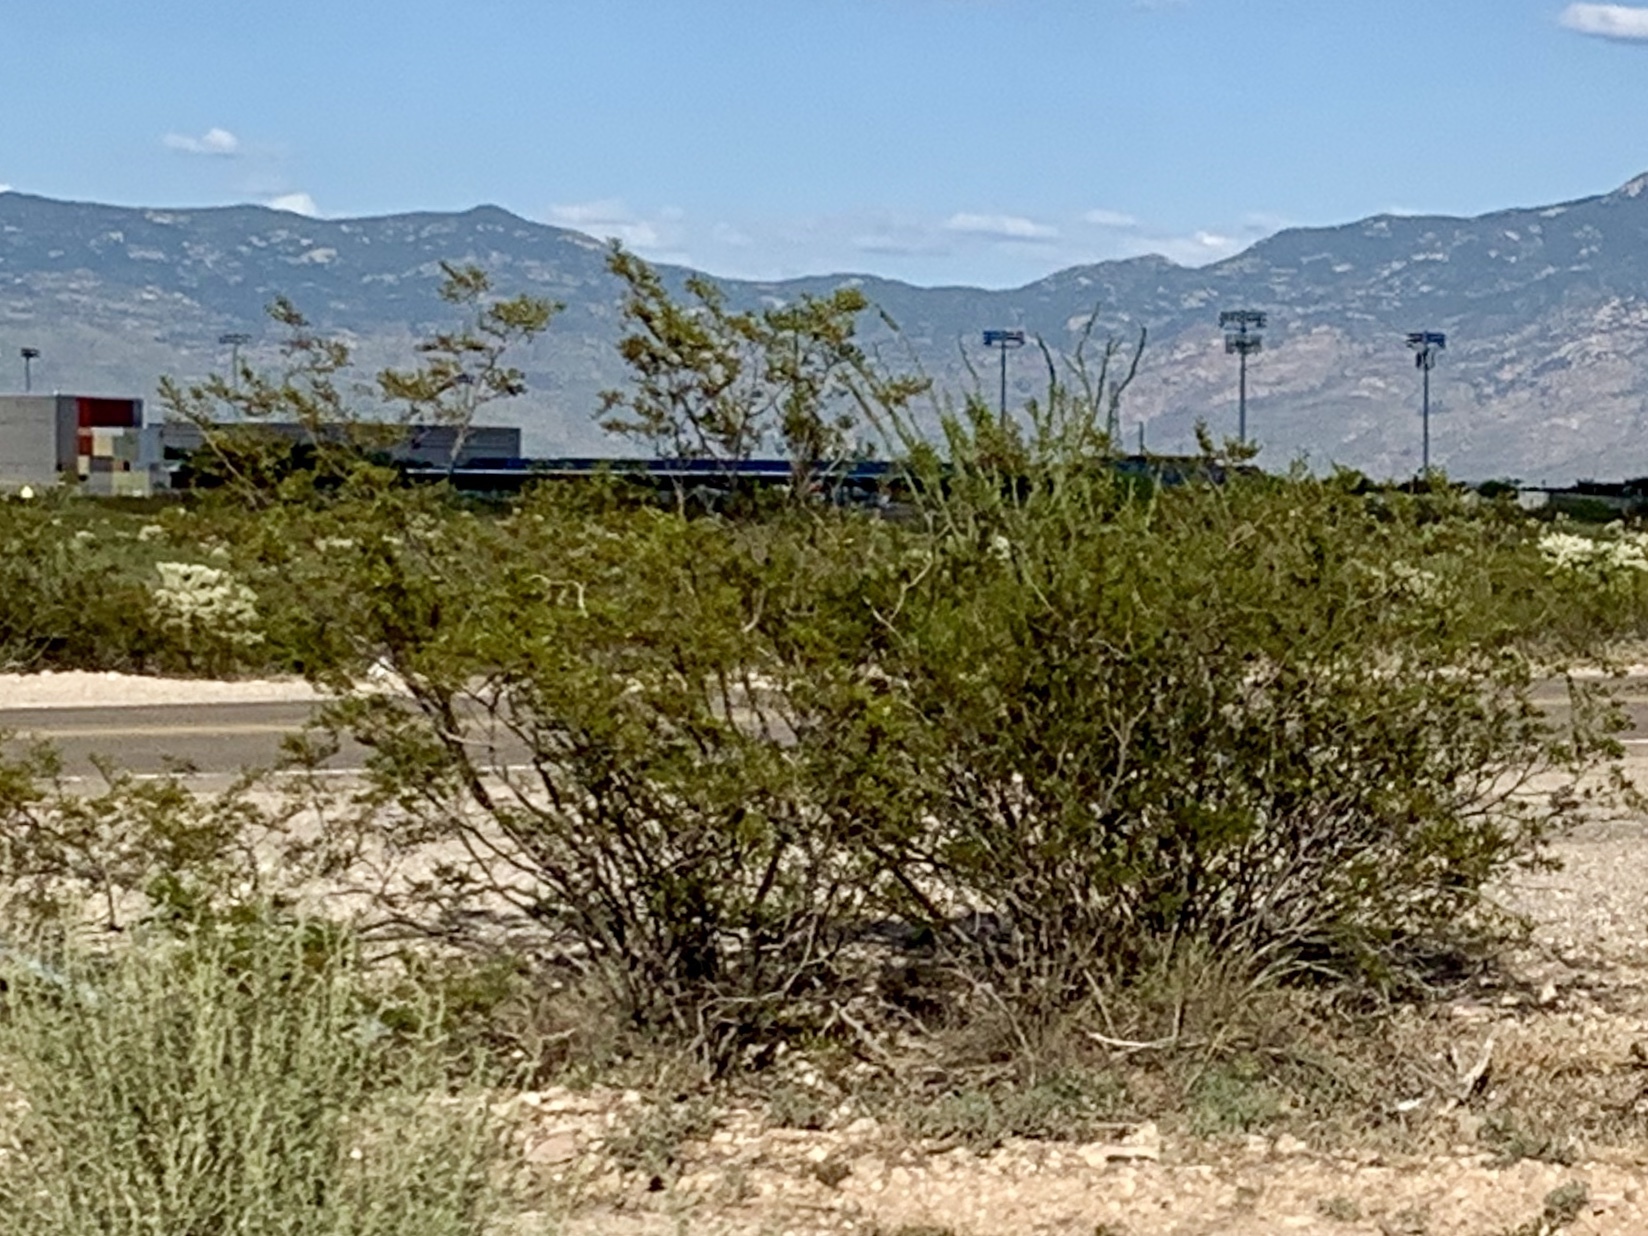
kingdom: Plantae
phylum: Tracheophyta
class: Magnoliopsida
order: Zygophyllales
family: Zygophyllaceae
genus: Larrea
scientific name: Larrea tridentata
